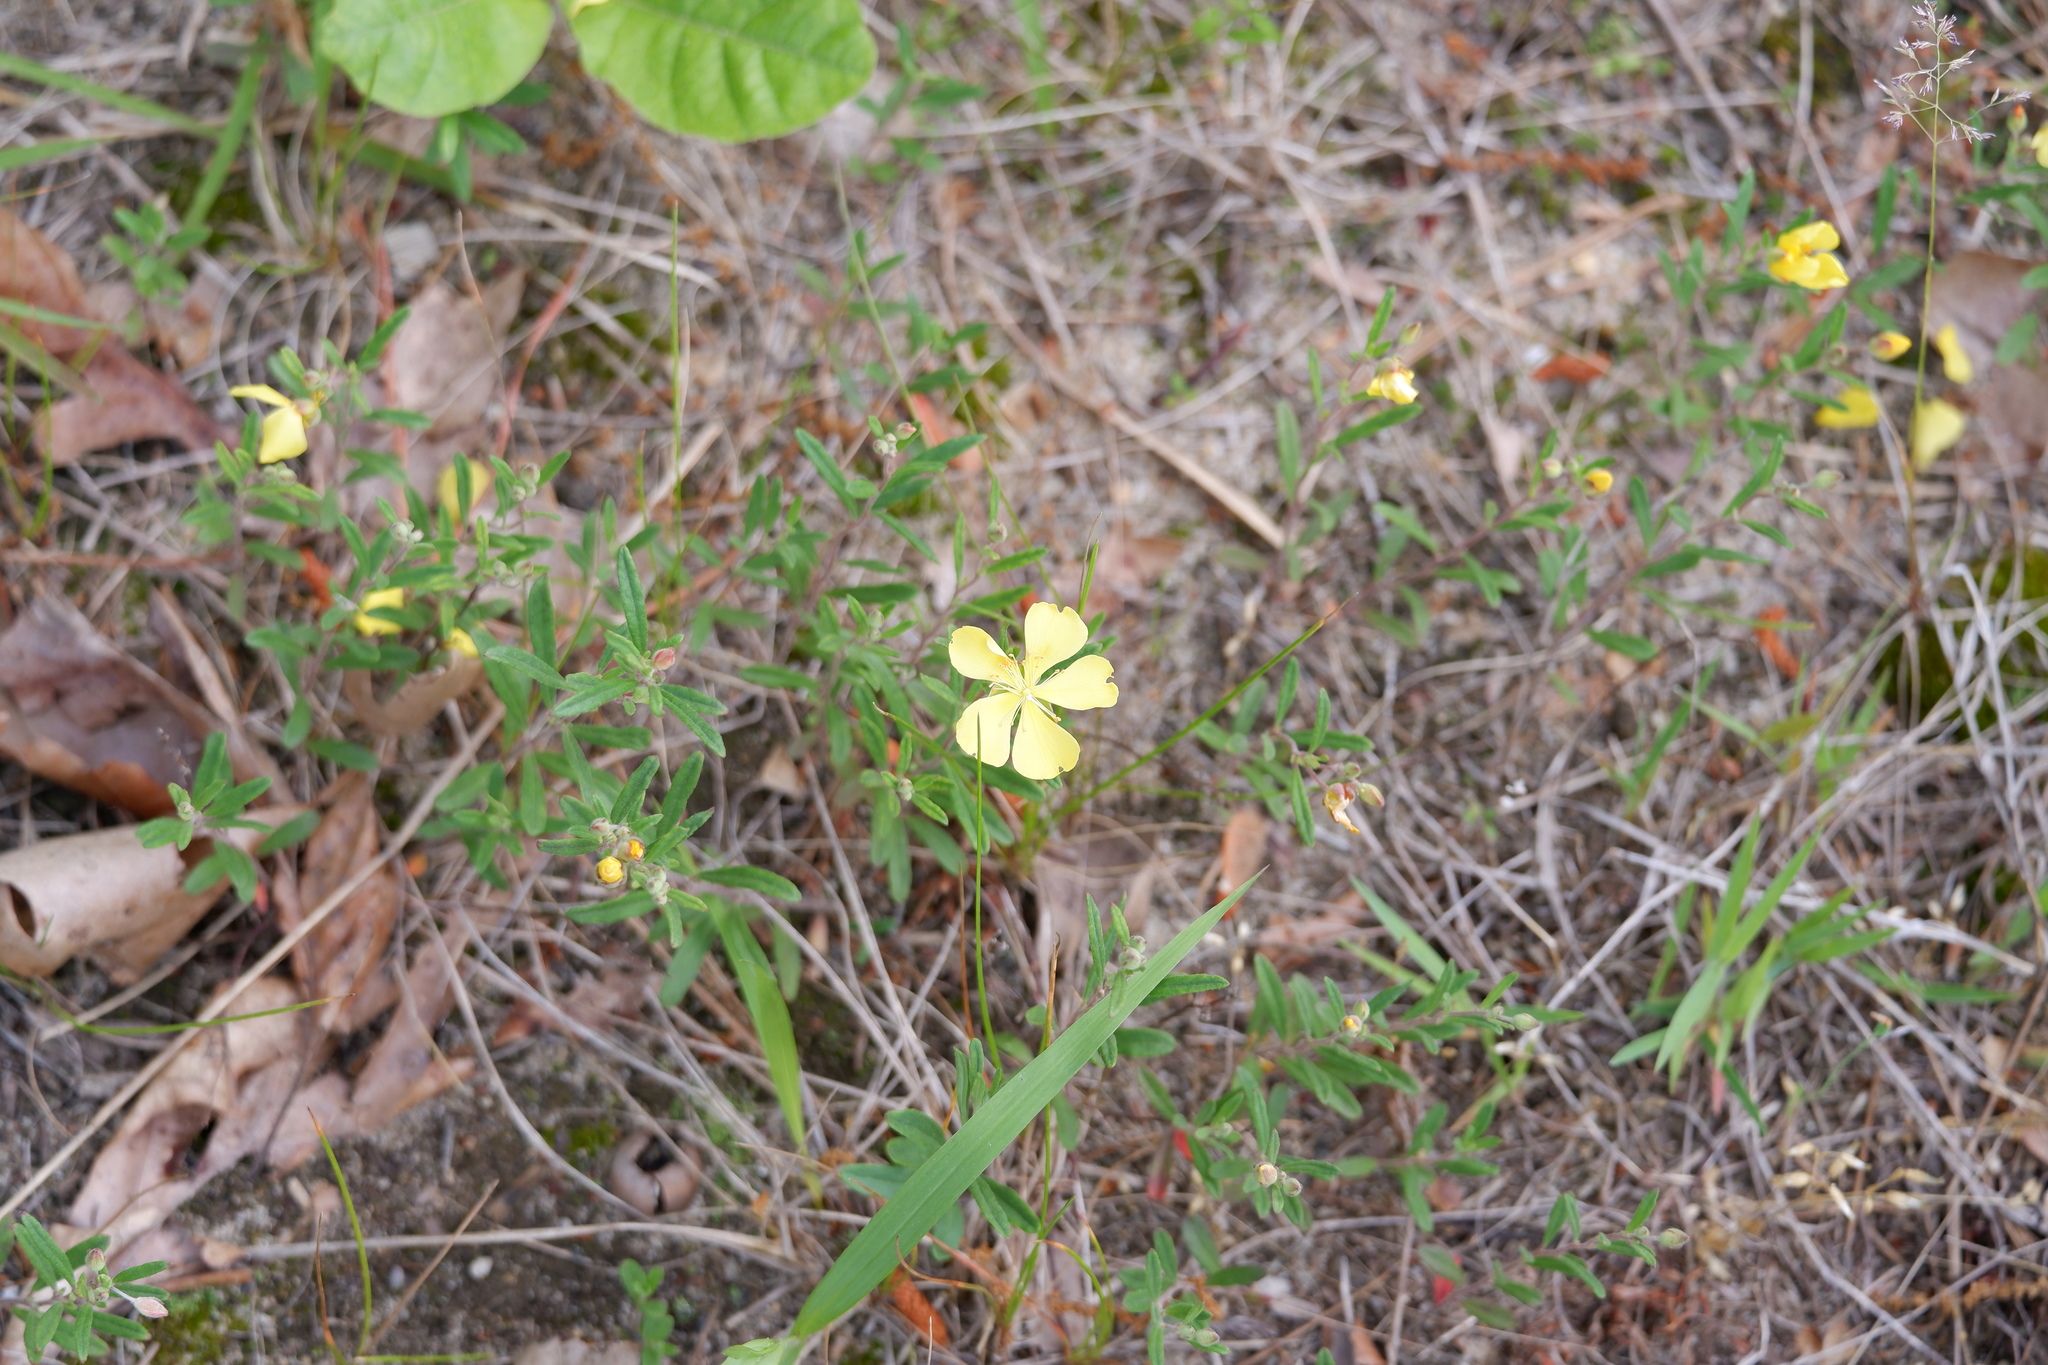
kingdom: Plantae
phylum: Tracheophyta
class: Magnoliopsida
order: Malvales
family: Cistaceae
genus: Crocanthemum
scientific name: Crocanthemum canadense
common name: Canada frostweed
